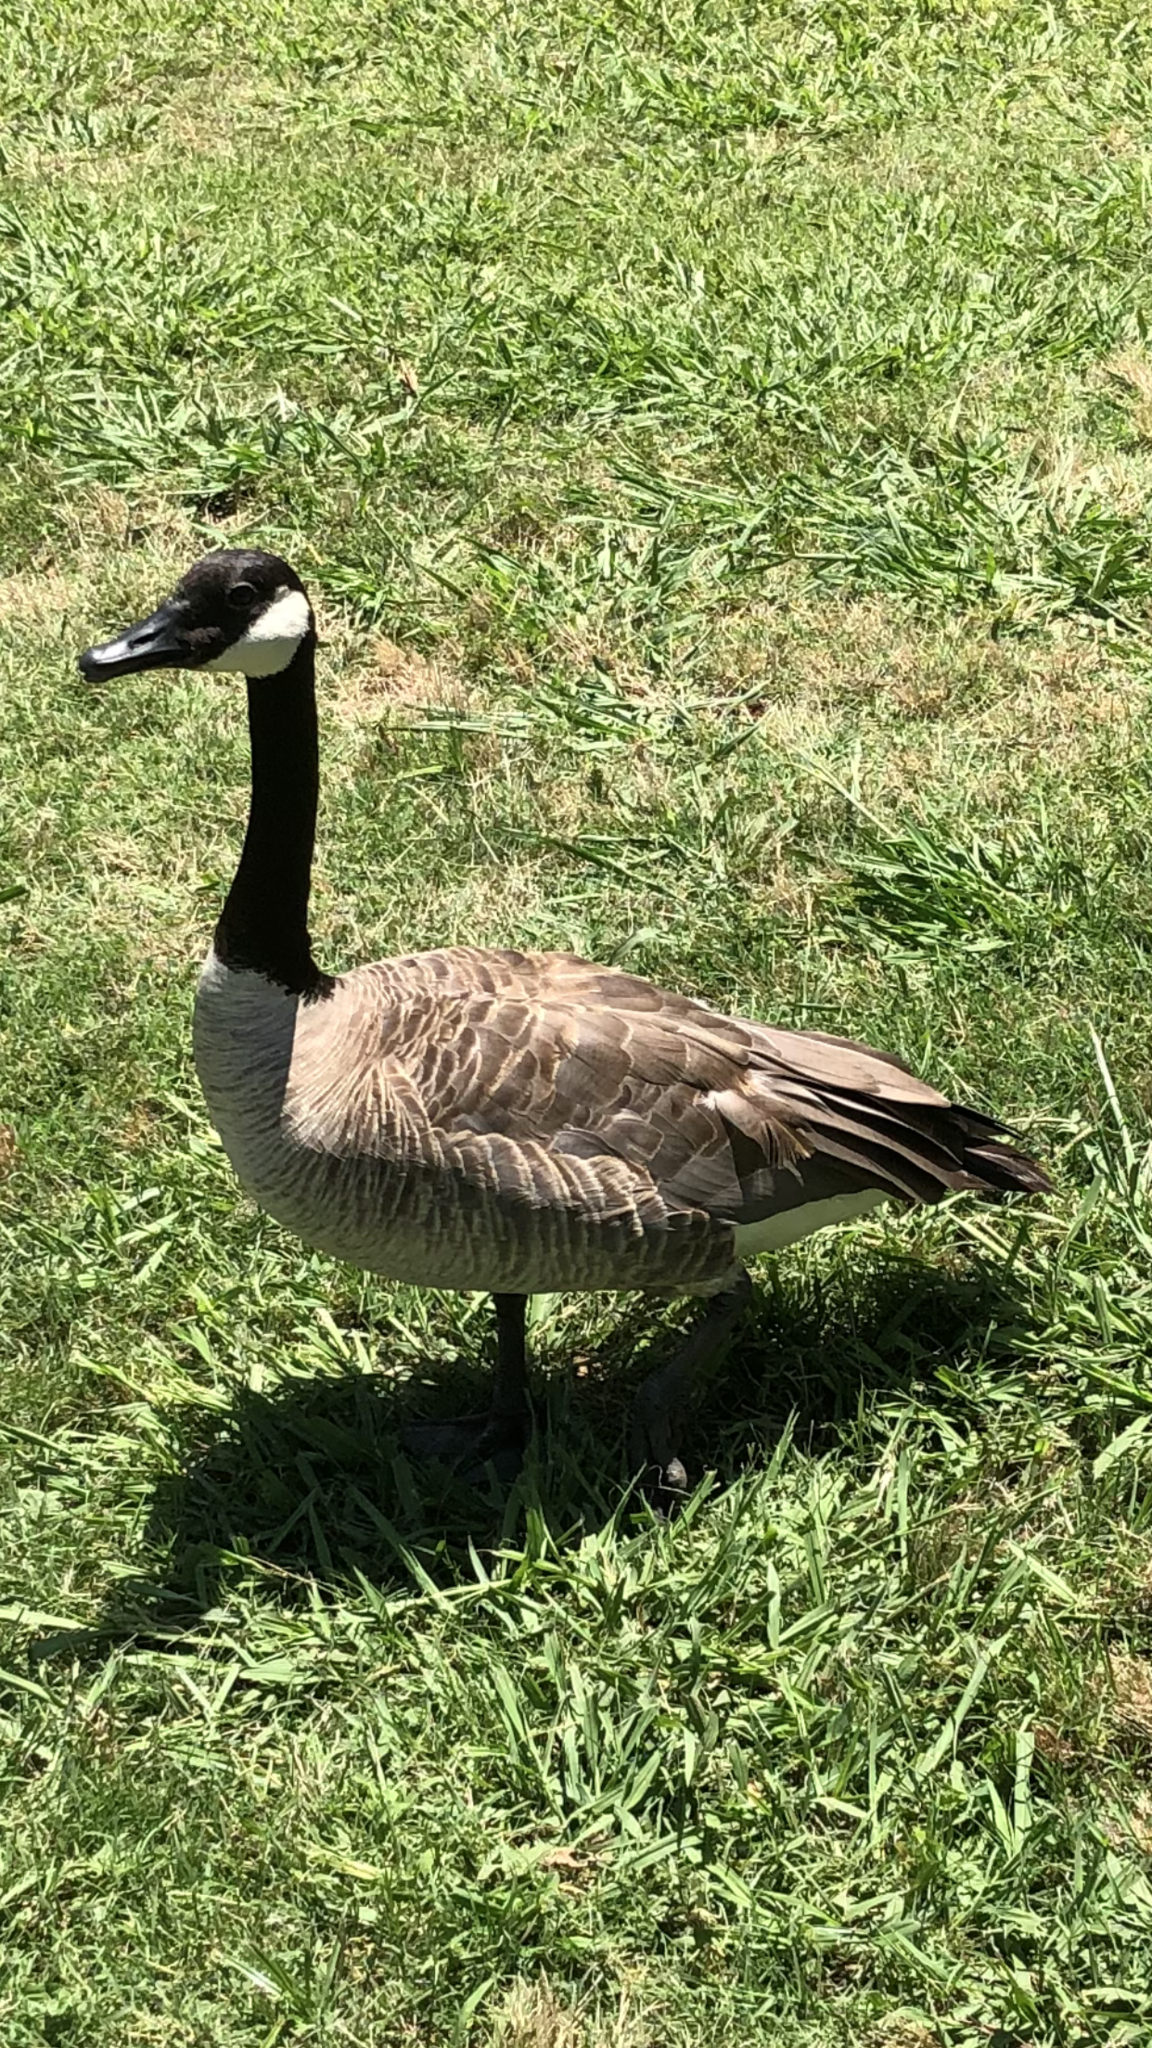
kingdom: Animalia
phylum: Chordata
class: Aves
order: Anseriformes
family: Anatidae
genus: Branta
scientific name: Branta canadensis
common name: Canada goose
